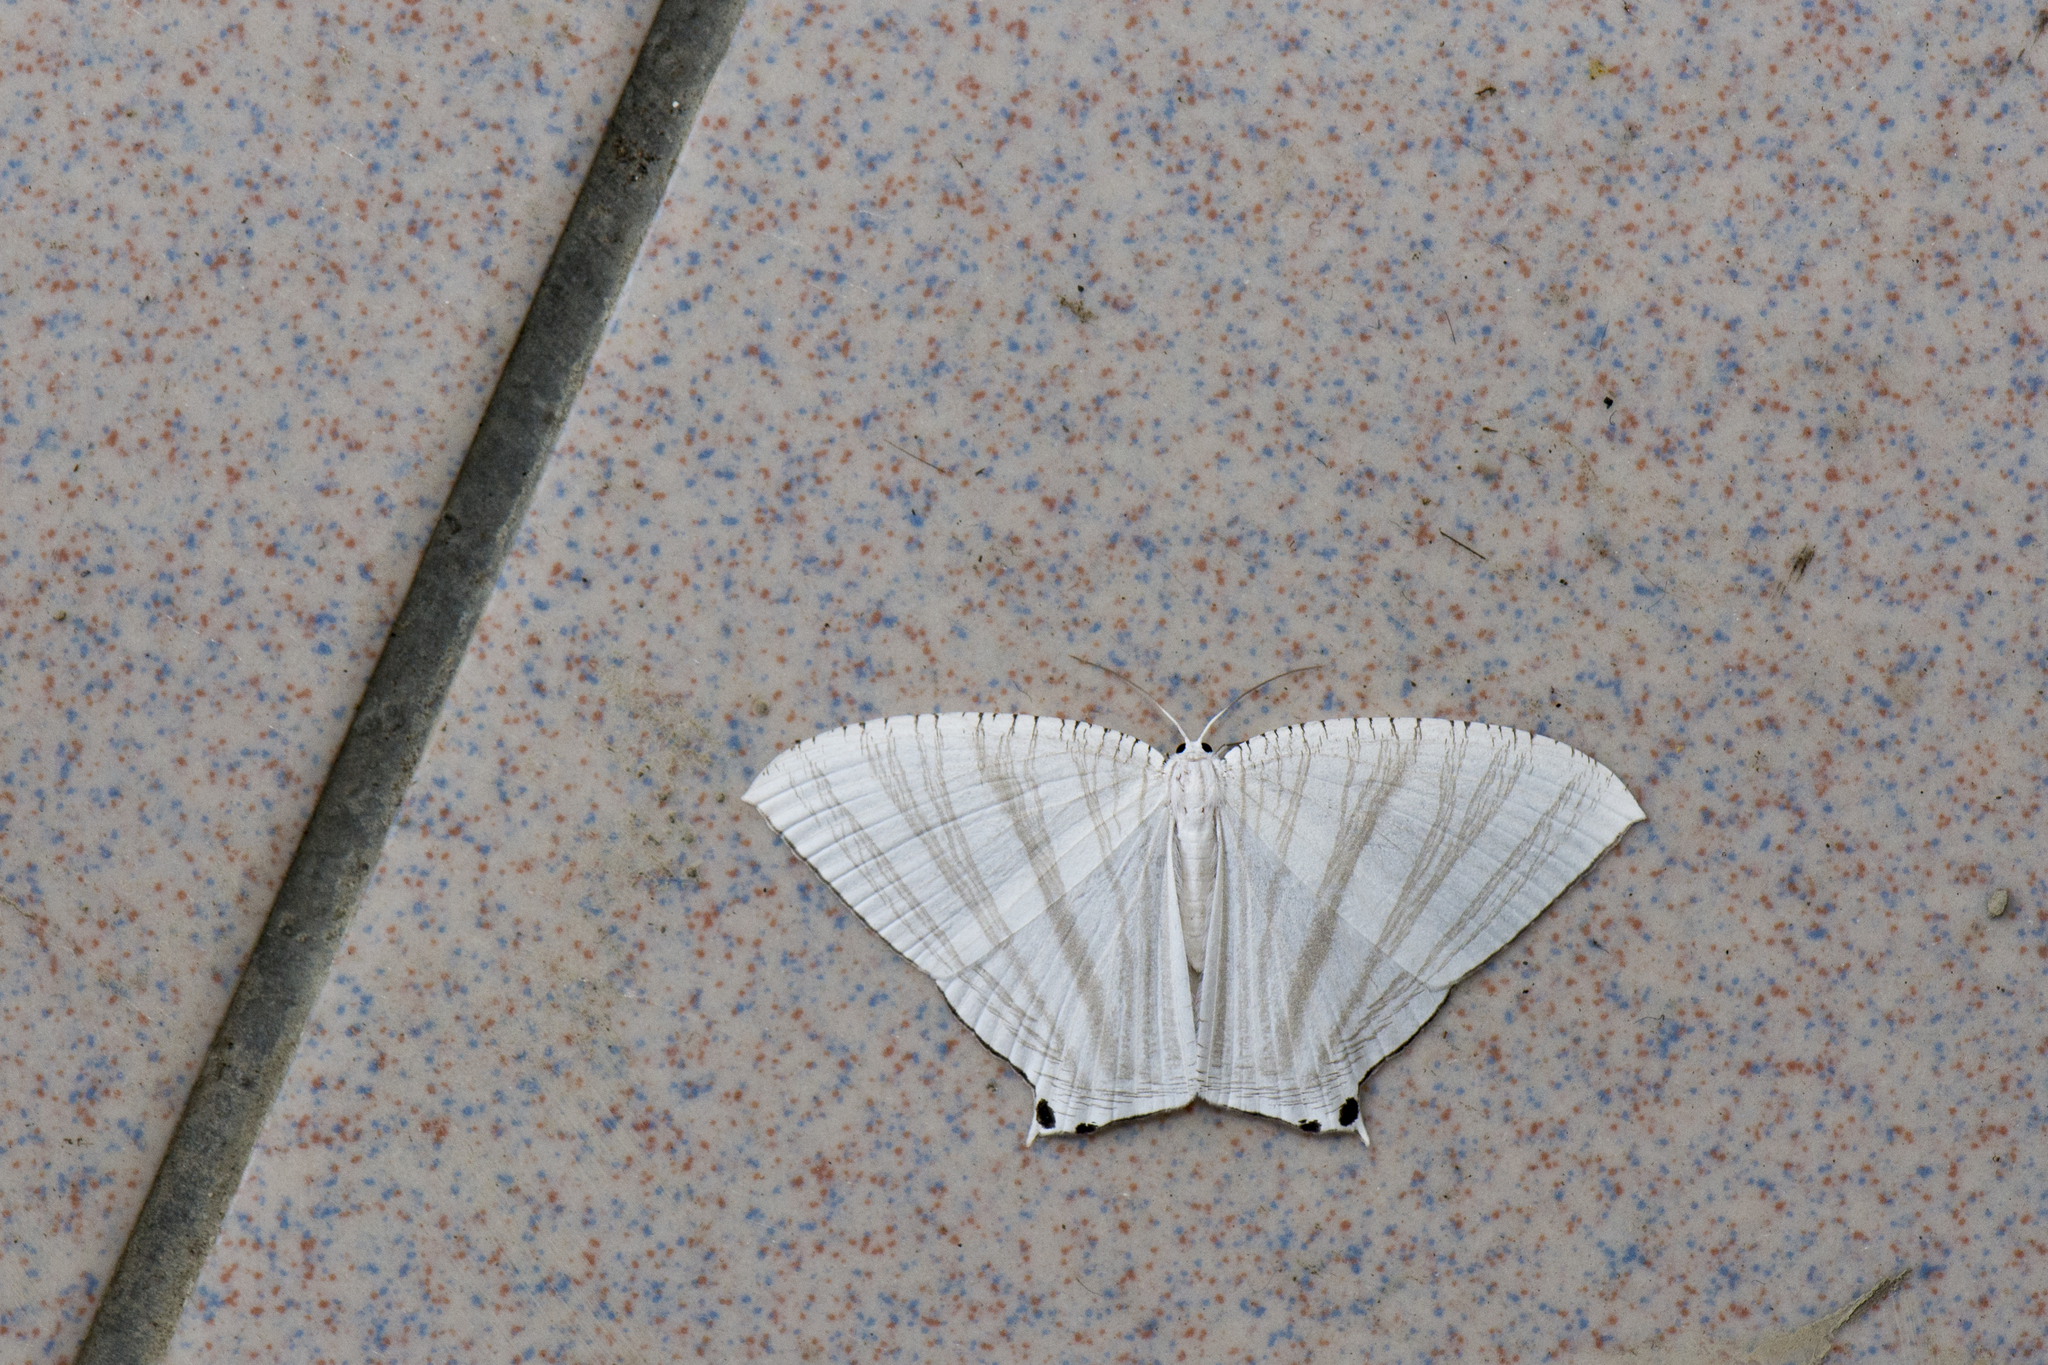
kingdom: Animalia
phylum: Arthropoda
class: Insecta
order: Lepidoptera
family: Uraniidae
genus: Pseudomicronia
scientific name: Pseudomicronia advocataria
